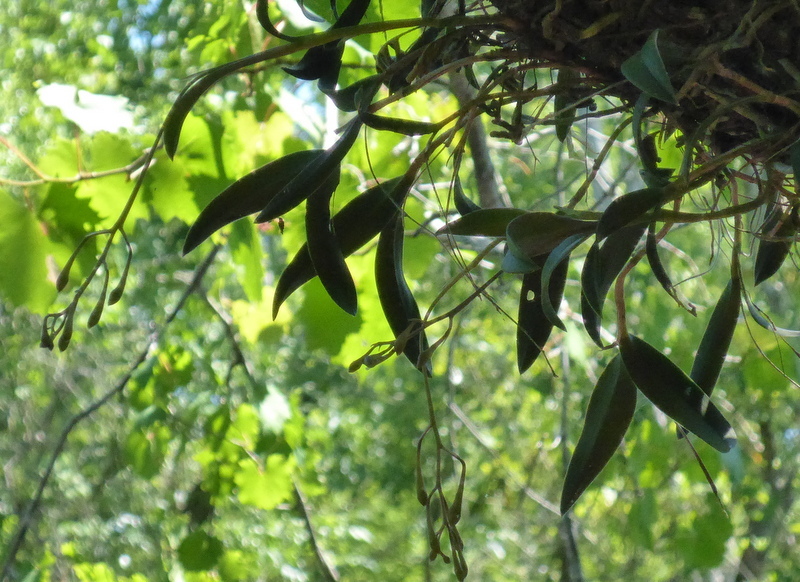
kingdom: Plantae
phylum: Tracheophyta
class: Liliopsida
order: Asparagales
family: Orchidaceae
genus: Epidendrum
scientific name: Epidendrum conopseum
